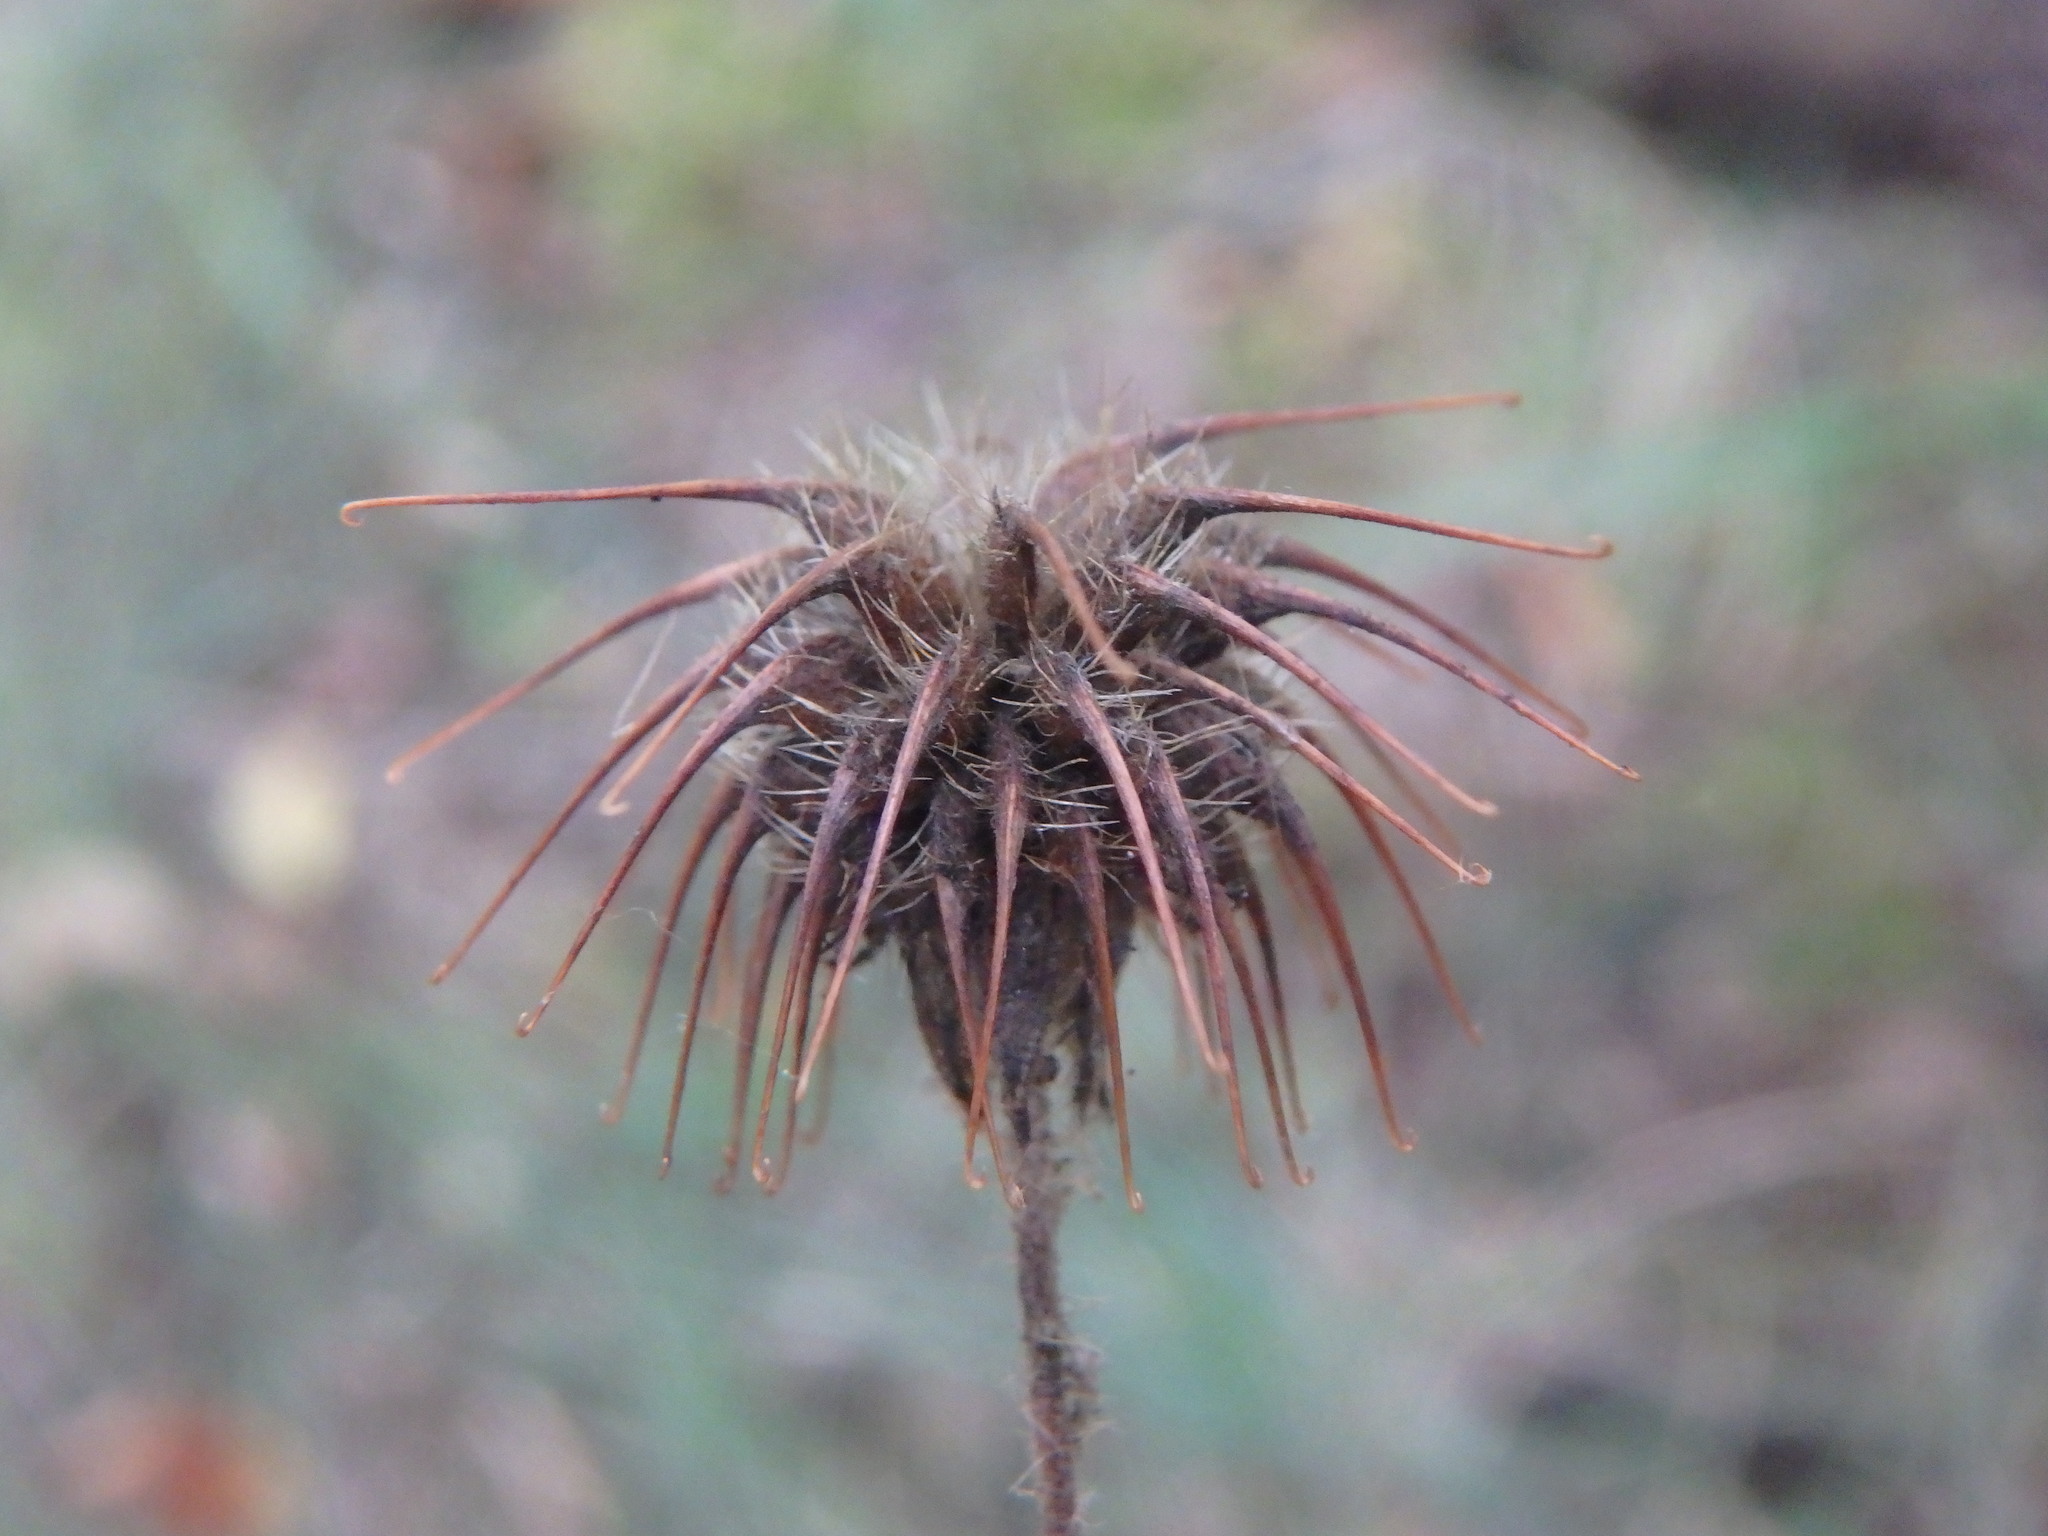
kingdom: Plantae
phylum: Tracheophyta
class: Magnoliopsida
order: Rosales
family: Rosaceae
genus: Geum
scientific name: Geum urbanum
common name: Wood avens
